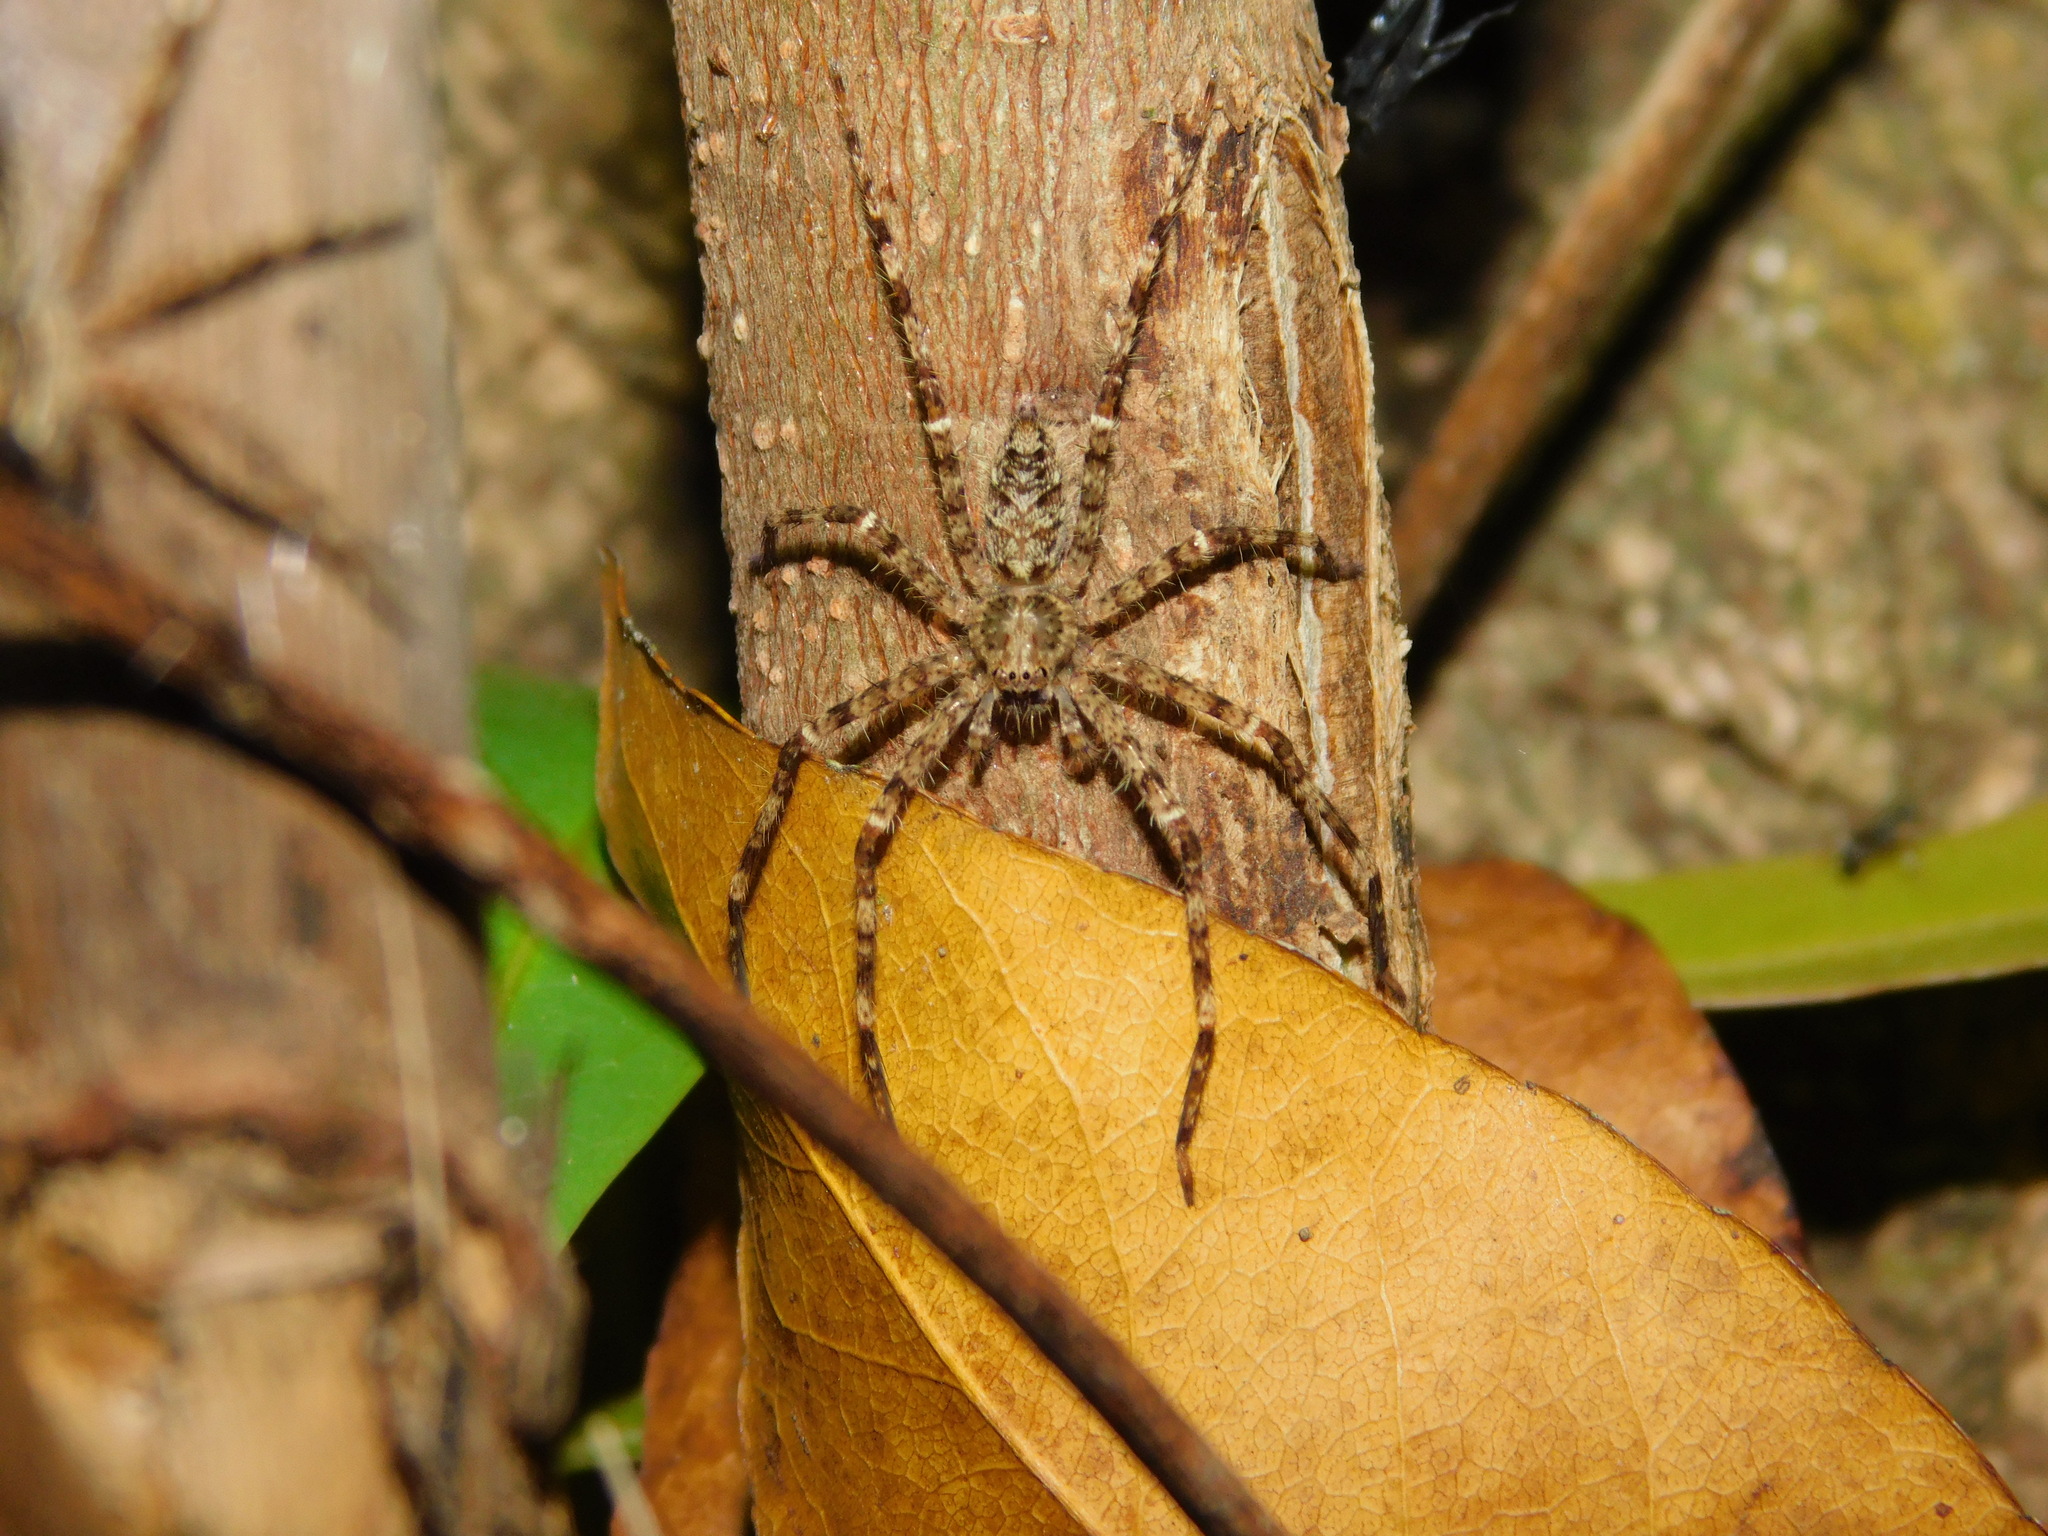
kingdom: Animalia
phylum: Arthropoda
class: Arachnida
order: Araneae
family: Sparassidae
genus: Heteropoda
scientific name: Heteropoda boiei
